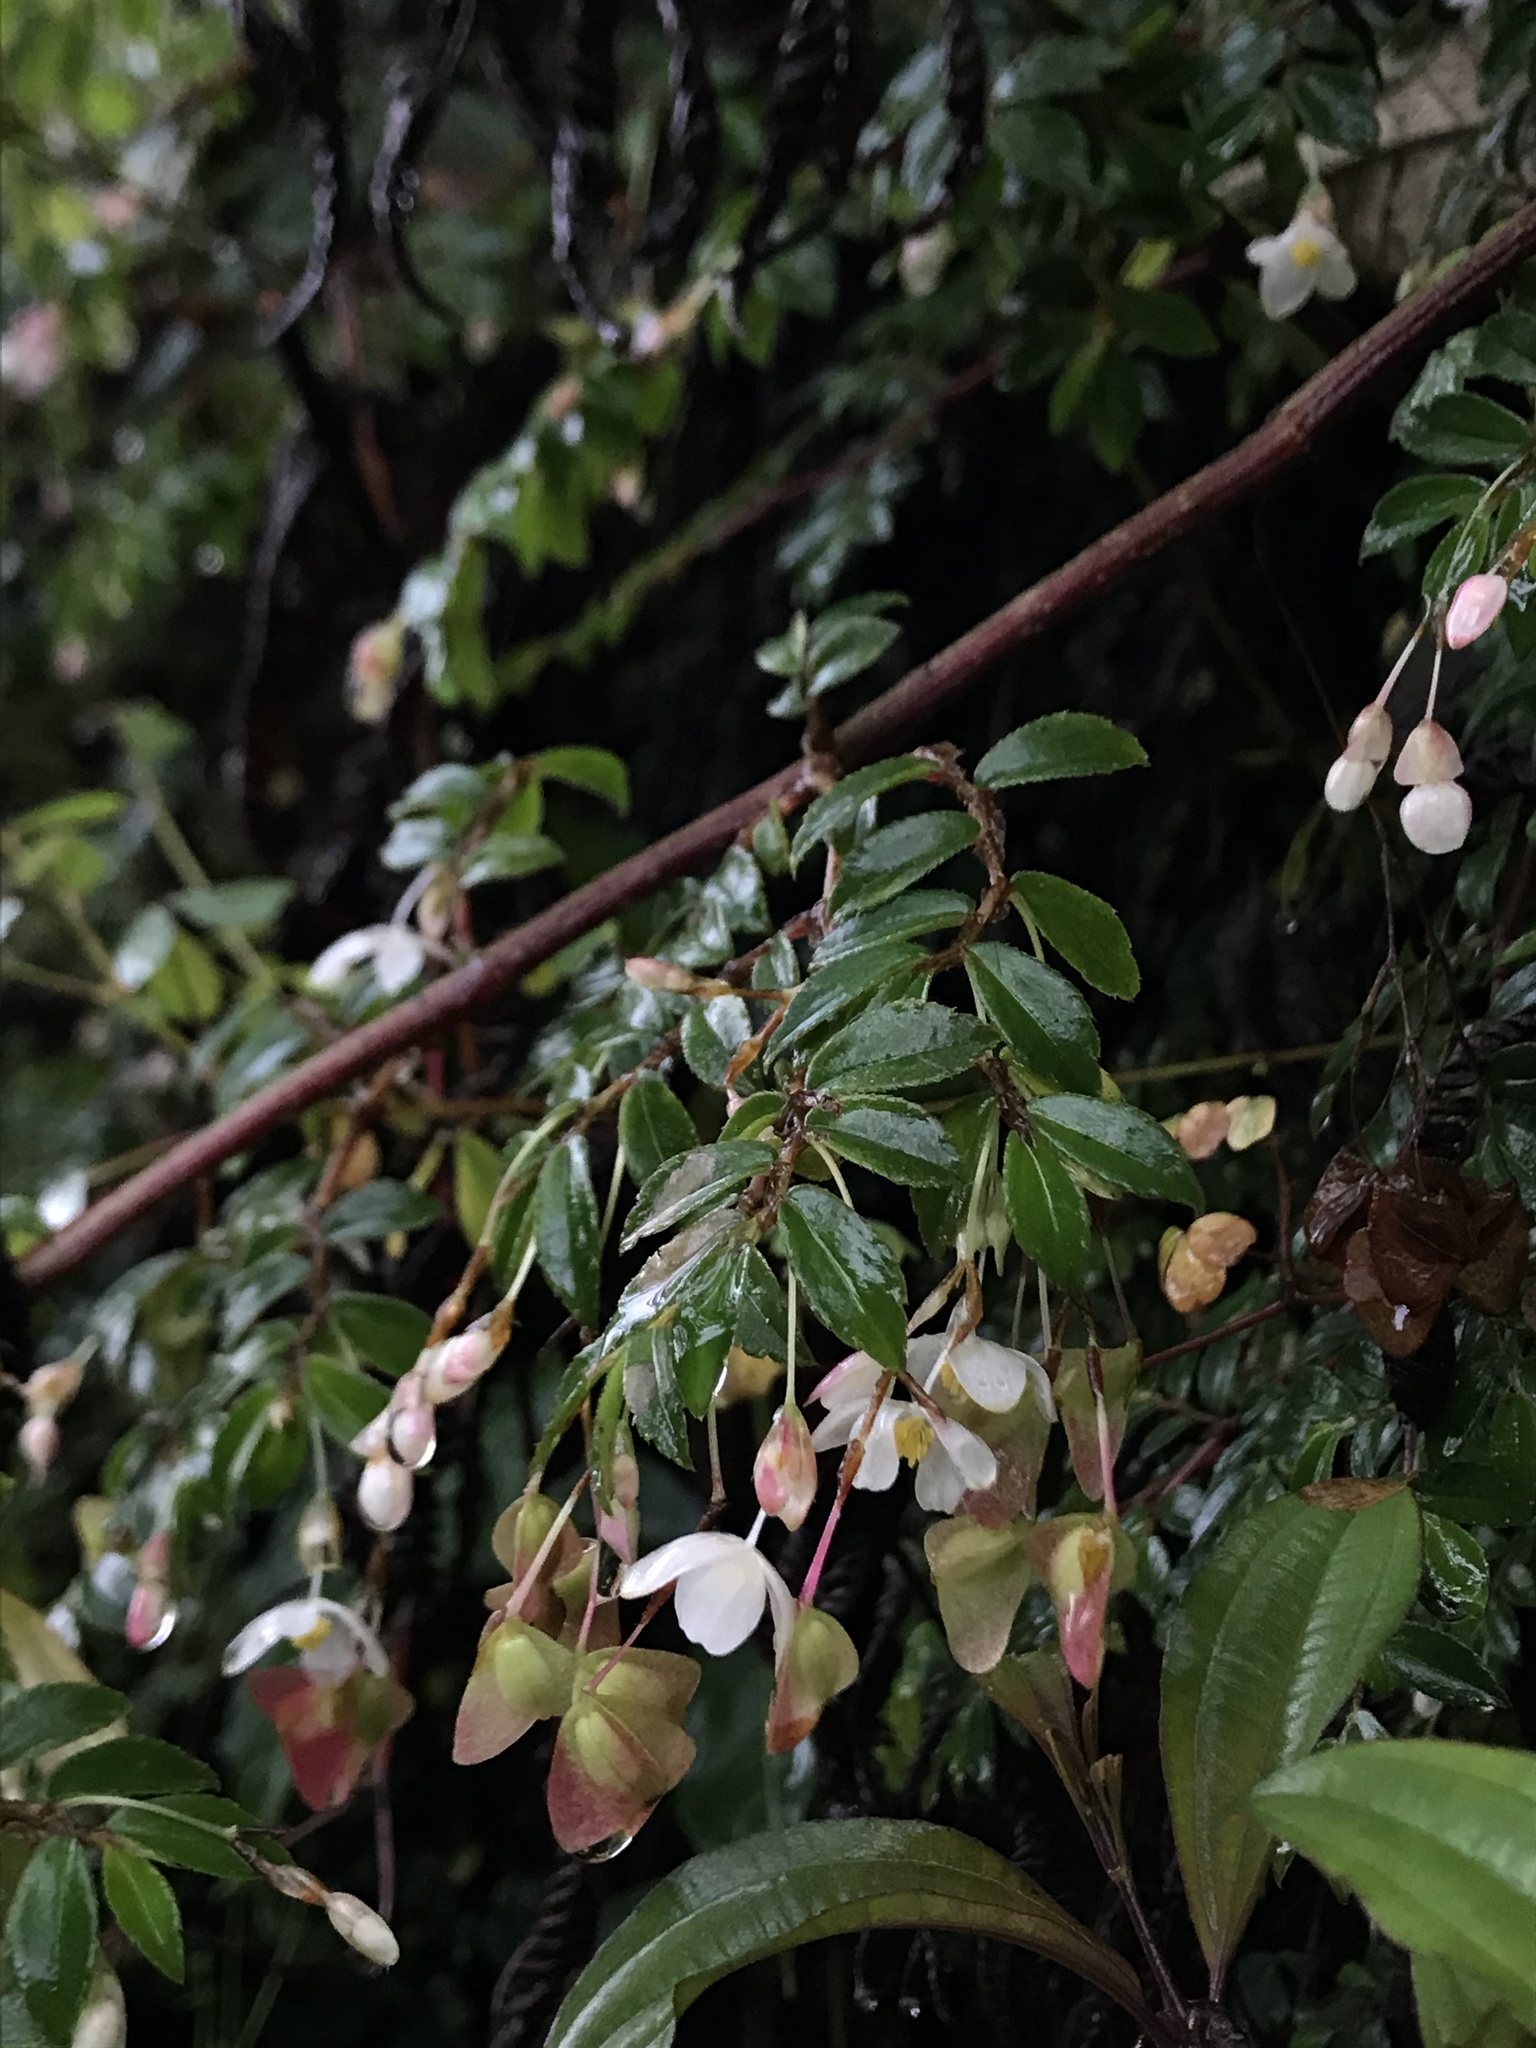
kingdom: Plantae
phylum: Tracheophyta
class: Magnoliopsida
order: Cucurbitales
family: Begoniaceae
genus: Begonia
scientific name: Begonia foliosa
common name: Fern begonia
